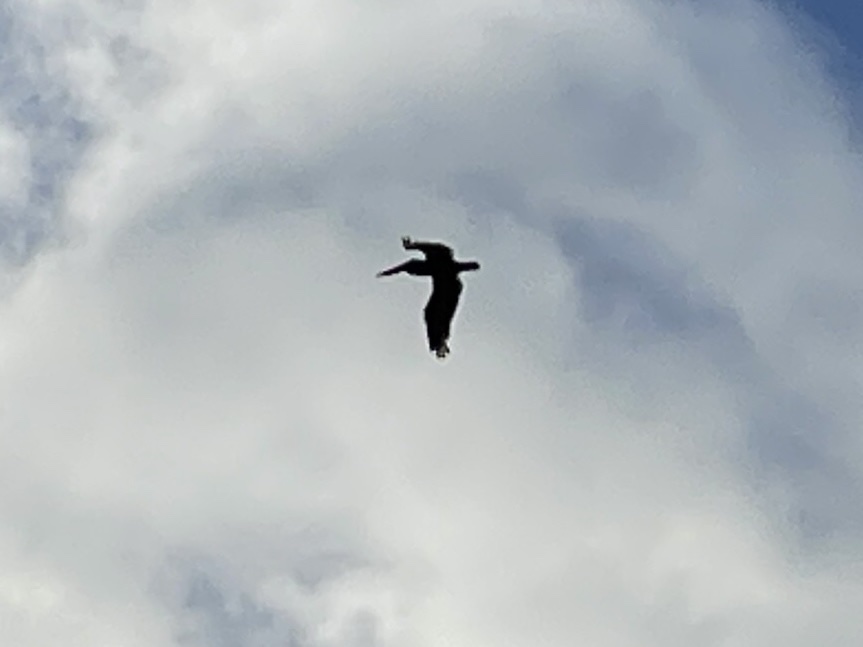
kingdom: Animalia
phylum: Chordata
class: Aves
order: Pelecaniformes
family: Pelecanidae
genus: Pelecanus
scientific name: Pelecanus occidentalis
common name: Brown pelican
